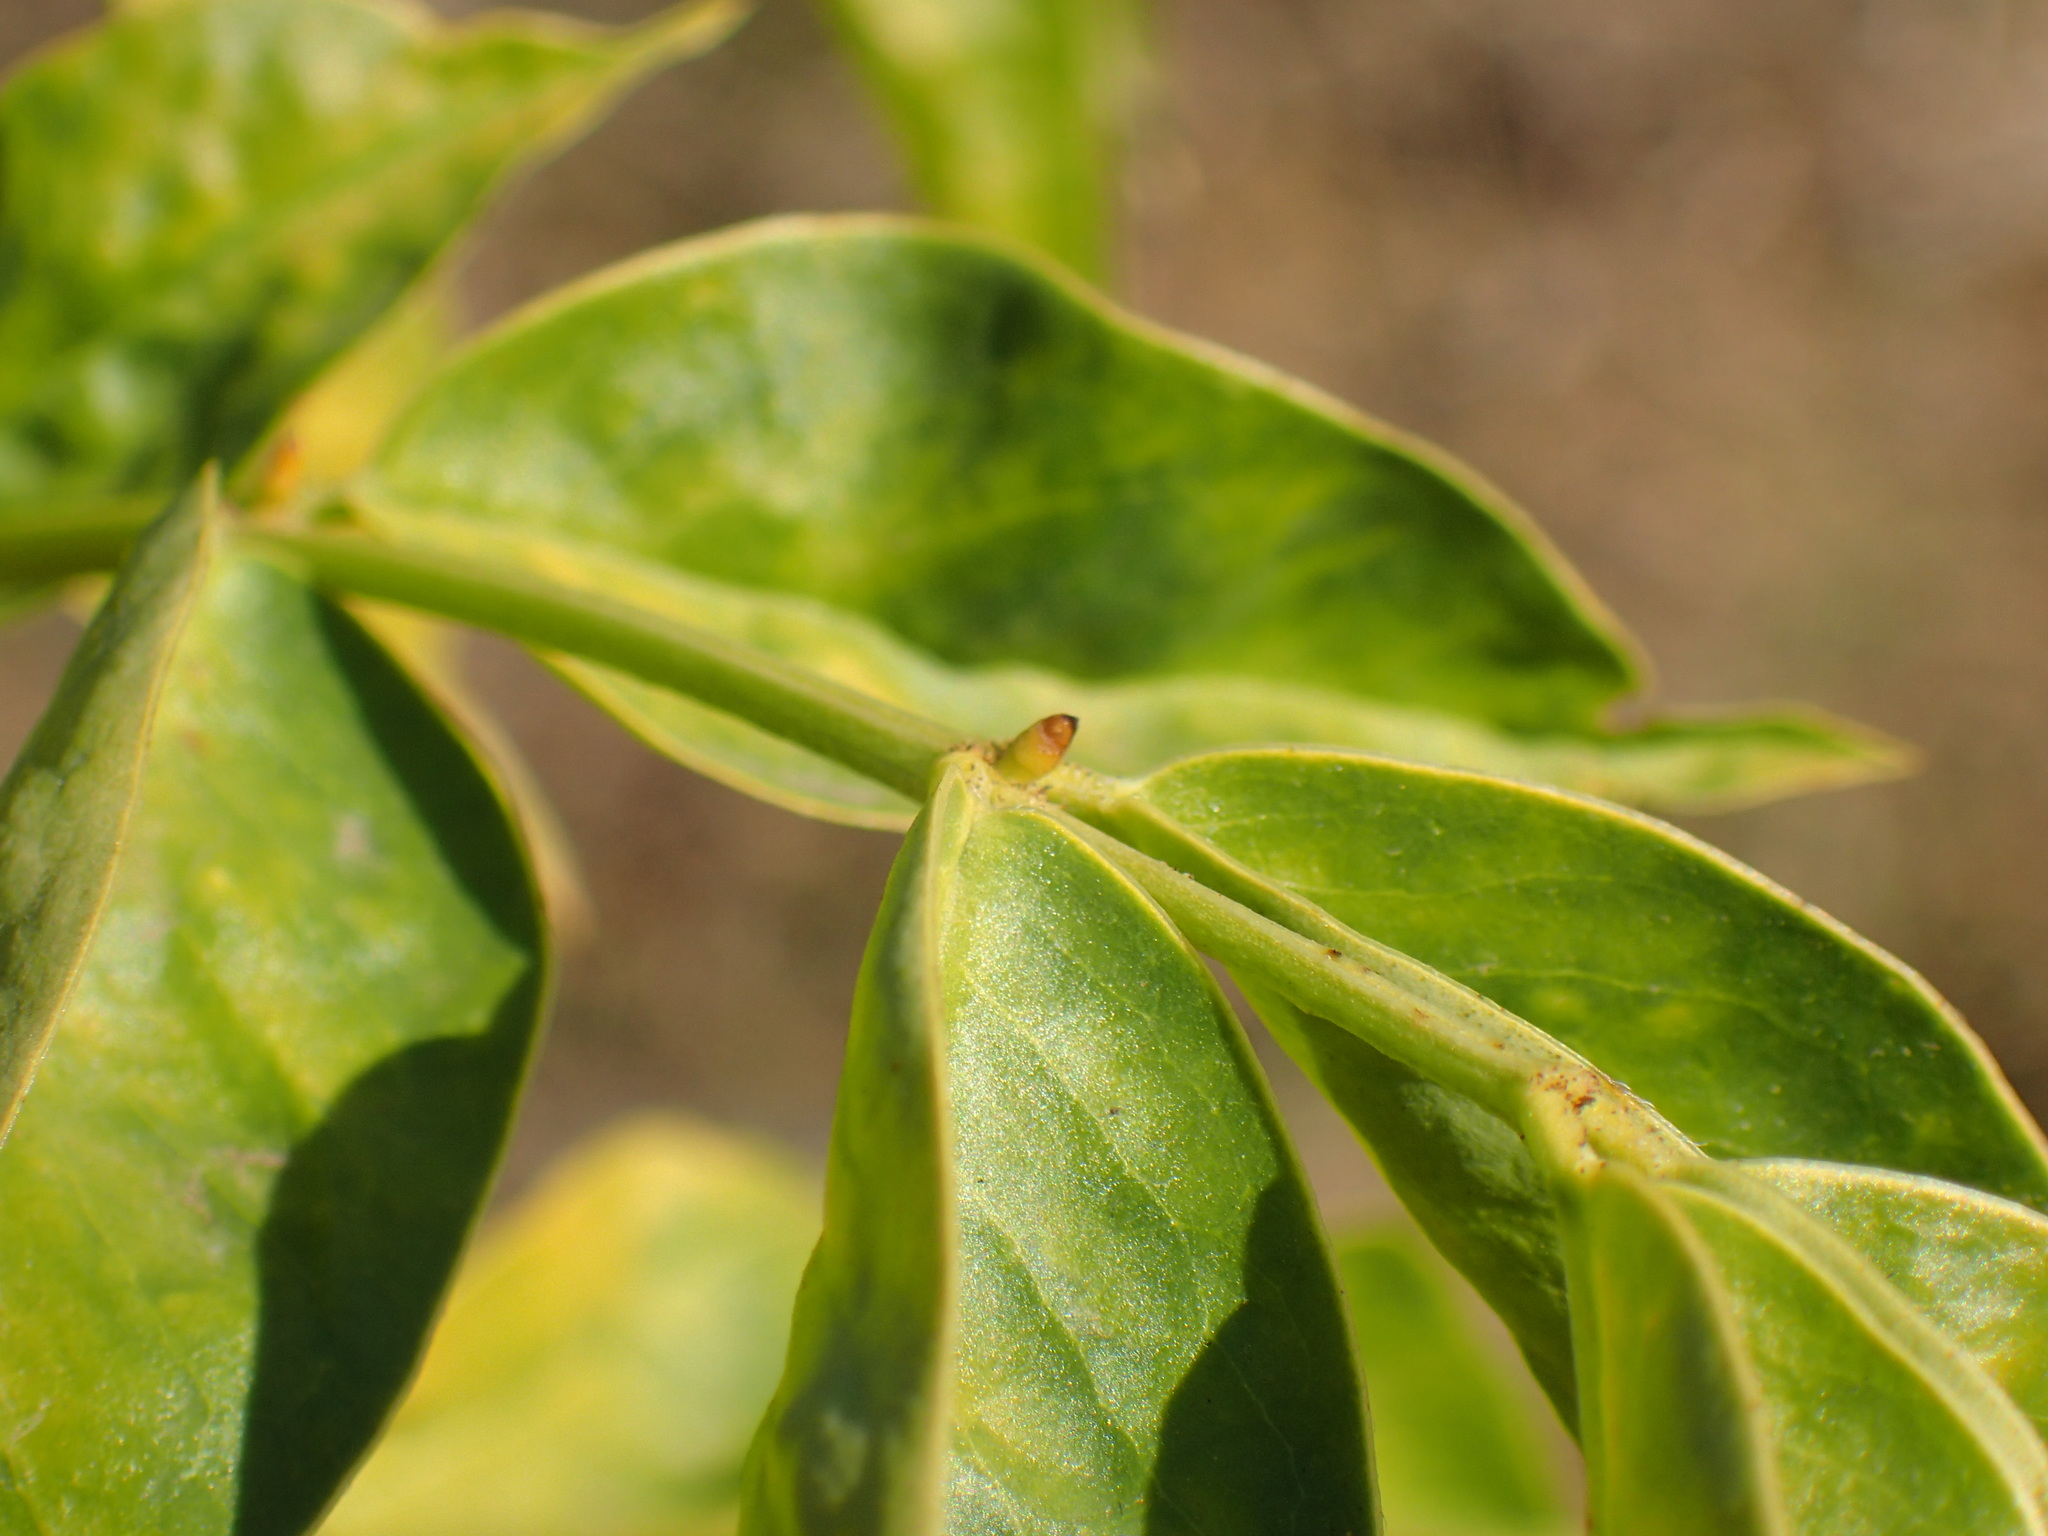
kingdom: Plantae
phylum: Tracheophyta
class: Magnoliopsida
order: Fabales
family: Fabaceae
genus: Senna
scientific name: Senna septemtrionalis
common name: Arsenic bush
